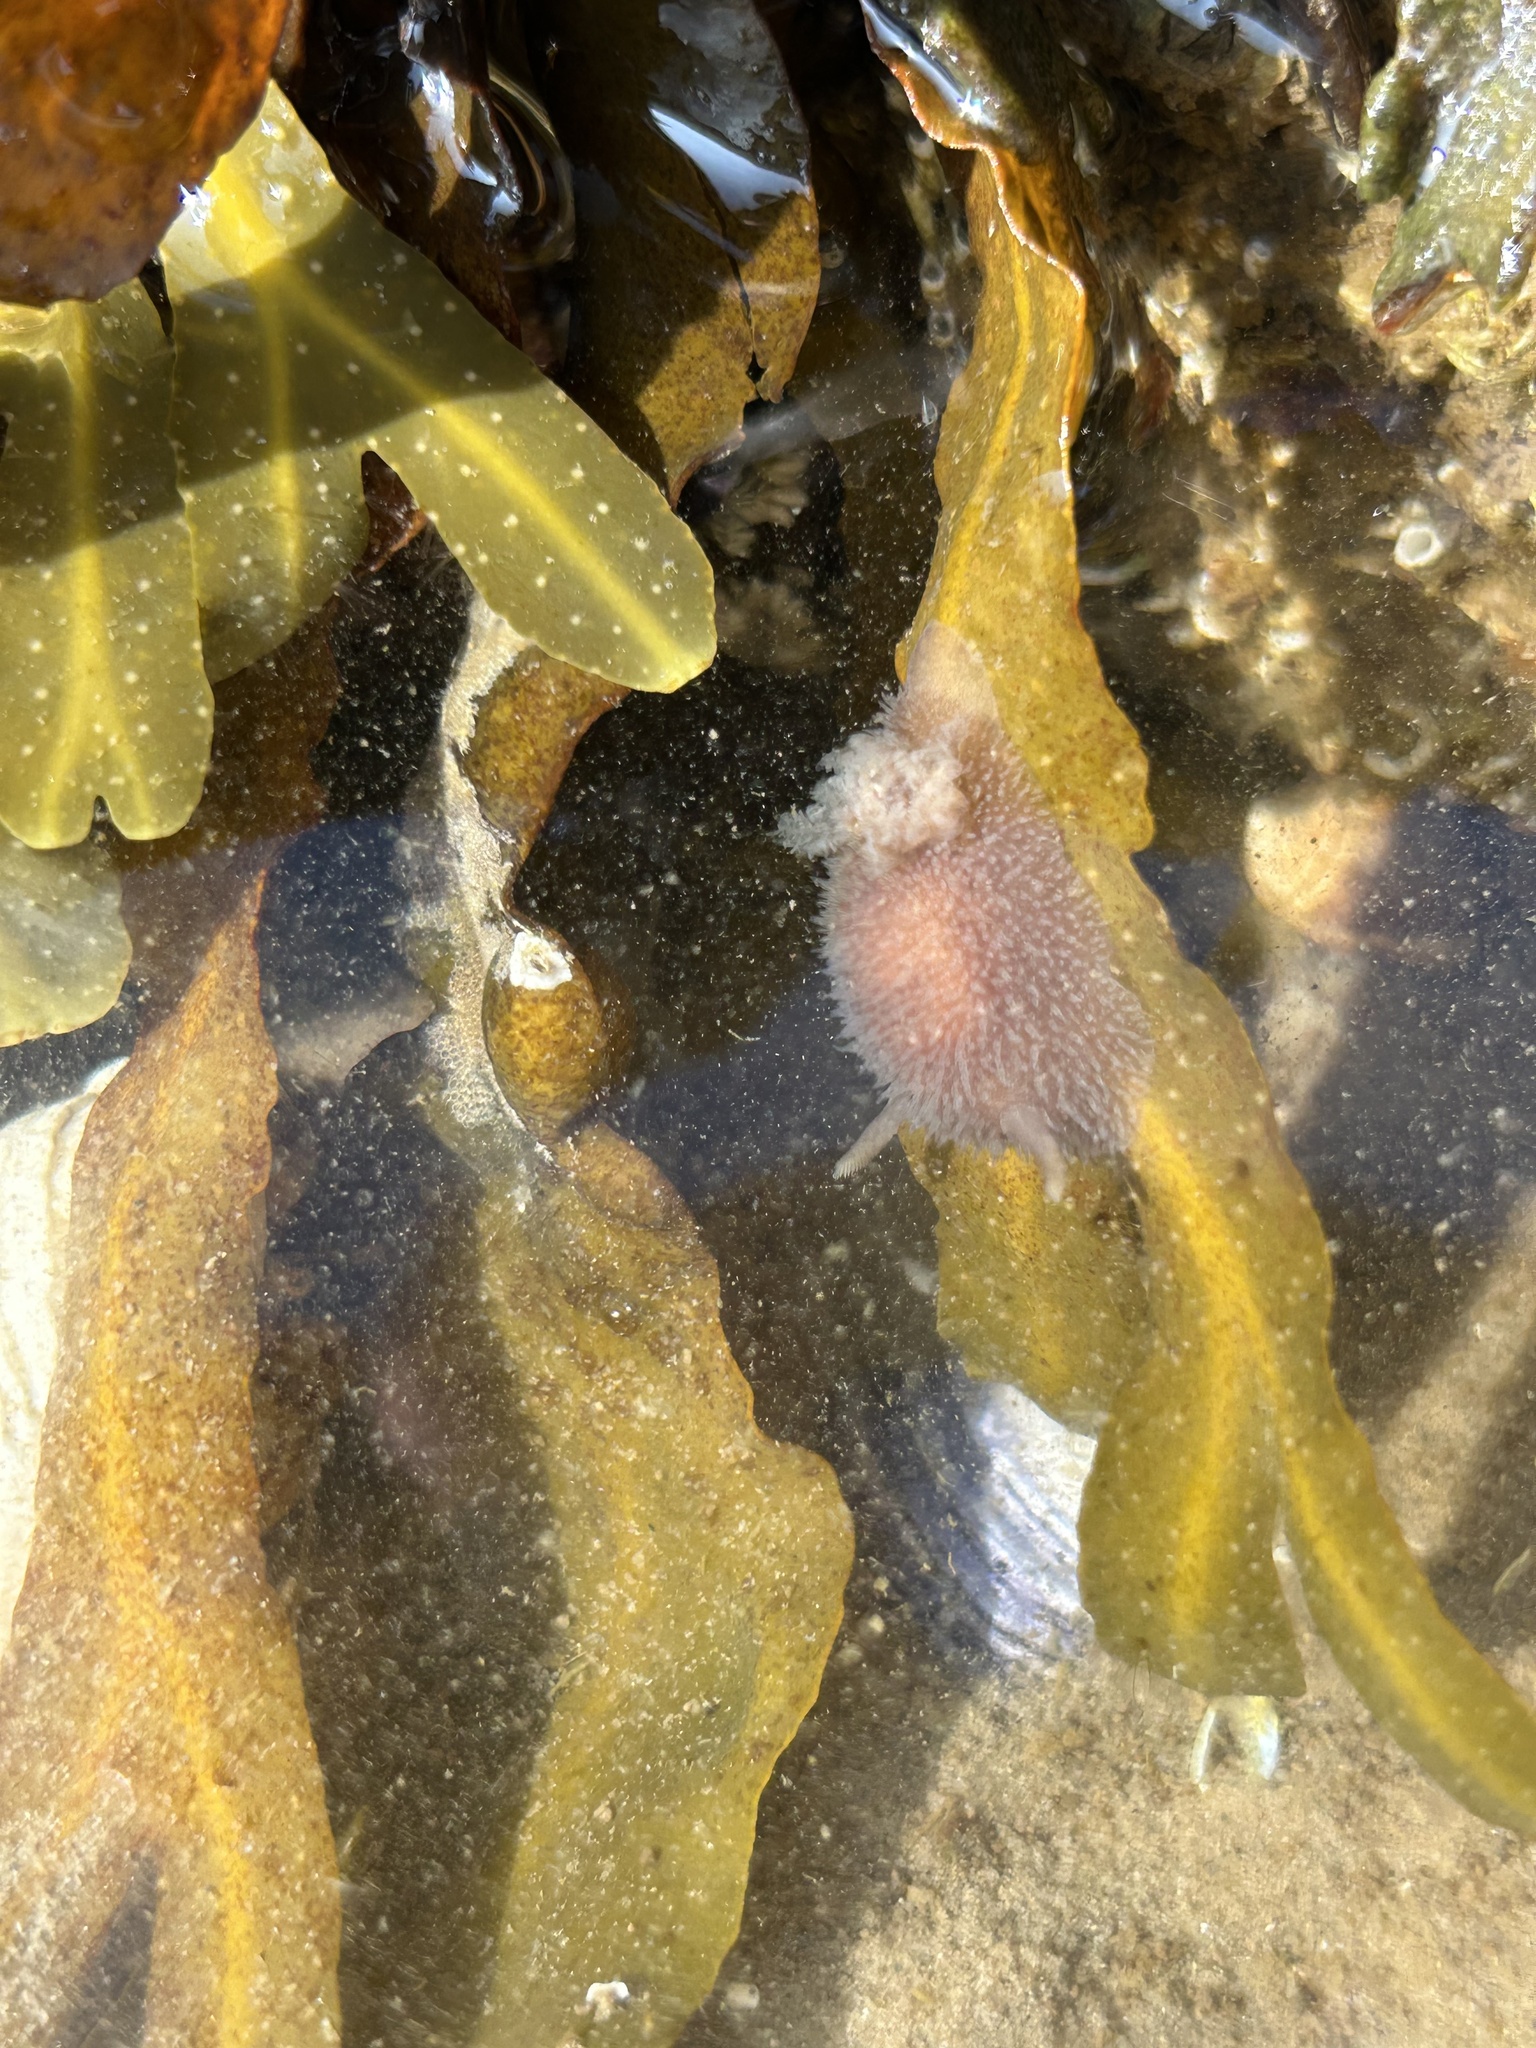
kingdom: Animalia
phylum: Mollusca
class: Gastropoda
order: Nudibranchia
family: Onchidorididae
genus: Acanthodoris
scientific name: Acanthodoris pilosa
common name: Hairy spiny doris
